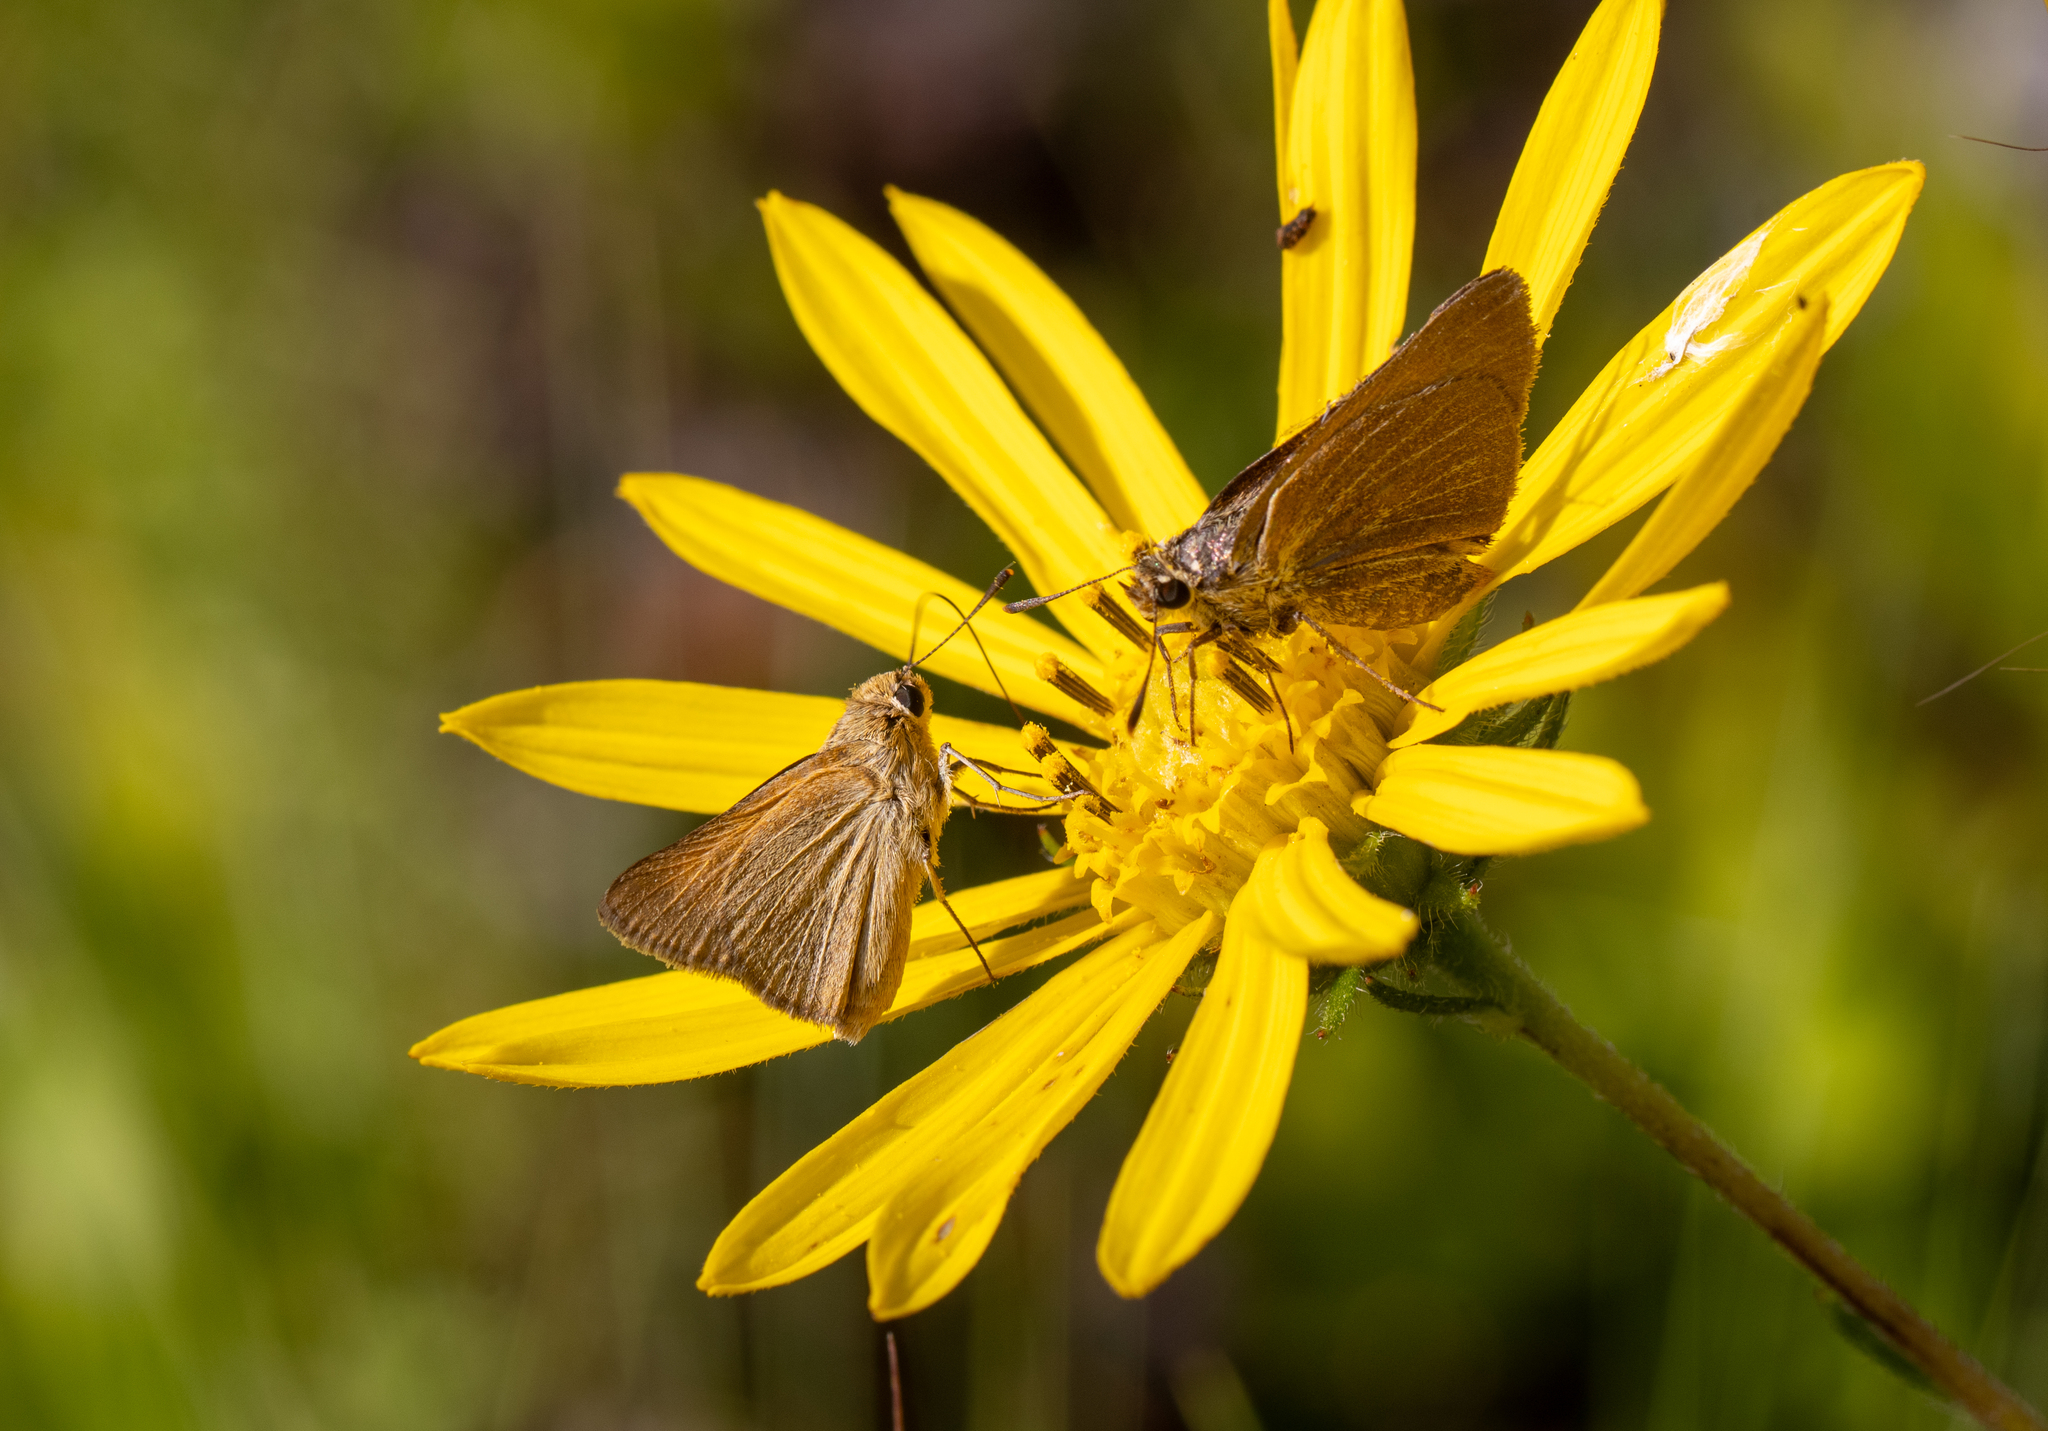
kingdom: Animalia
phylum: Arthropoda
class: Insecta
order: Lepidoptera
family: Hesperiidae
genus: Atrytone
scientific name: Atrytone arogos
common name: Arogos skipper
